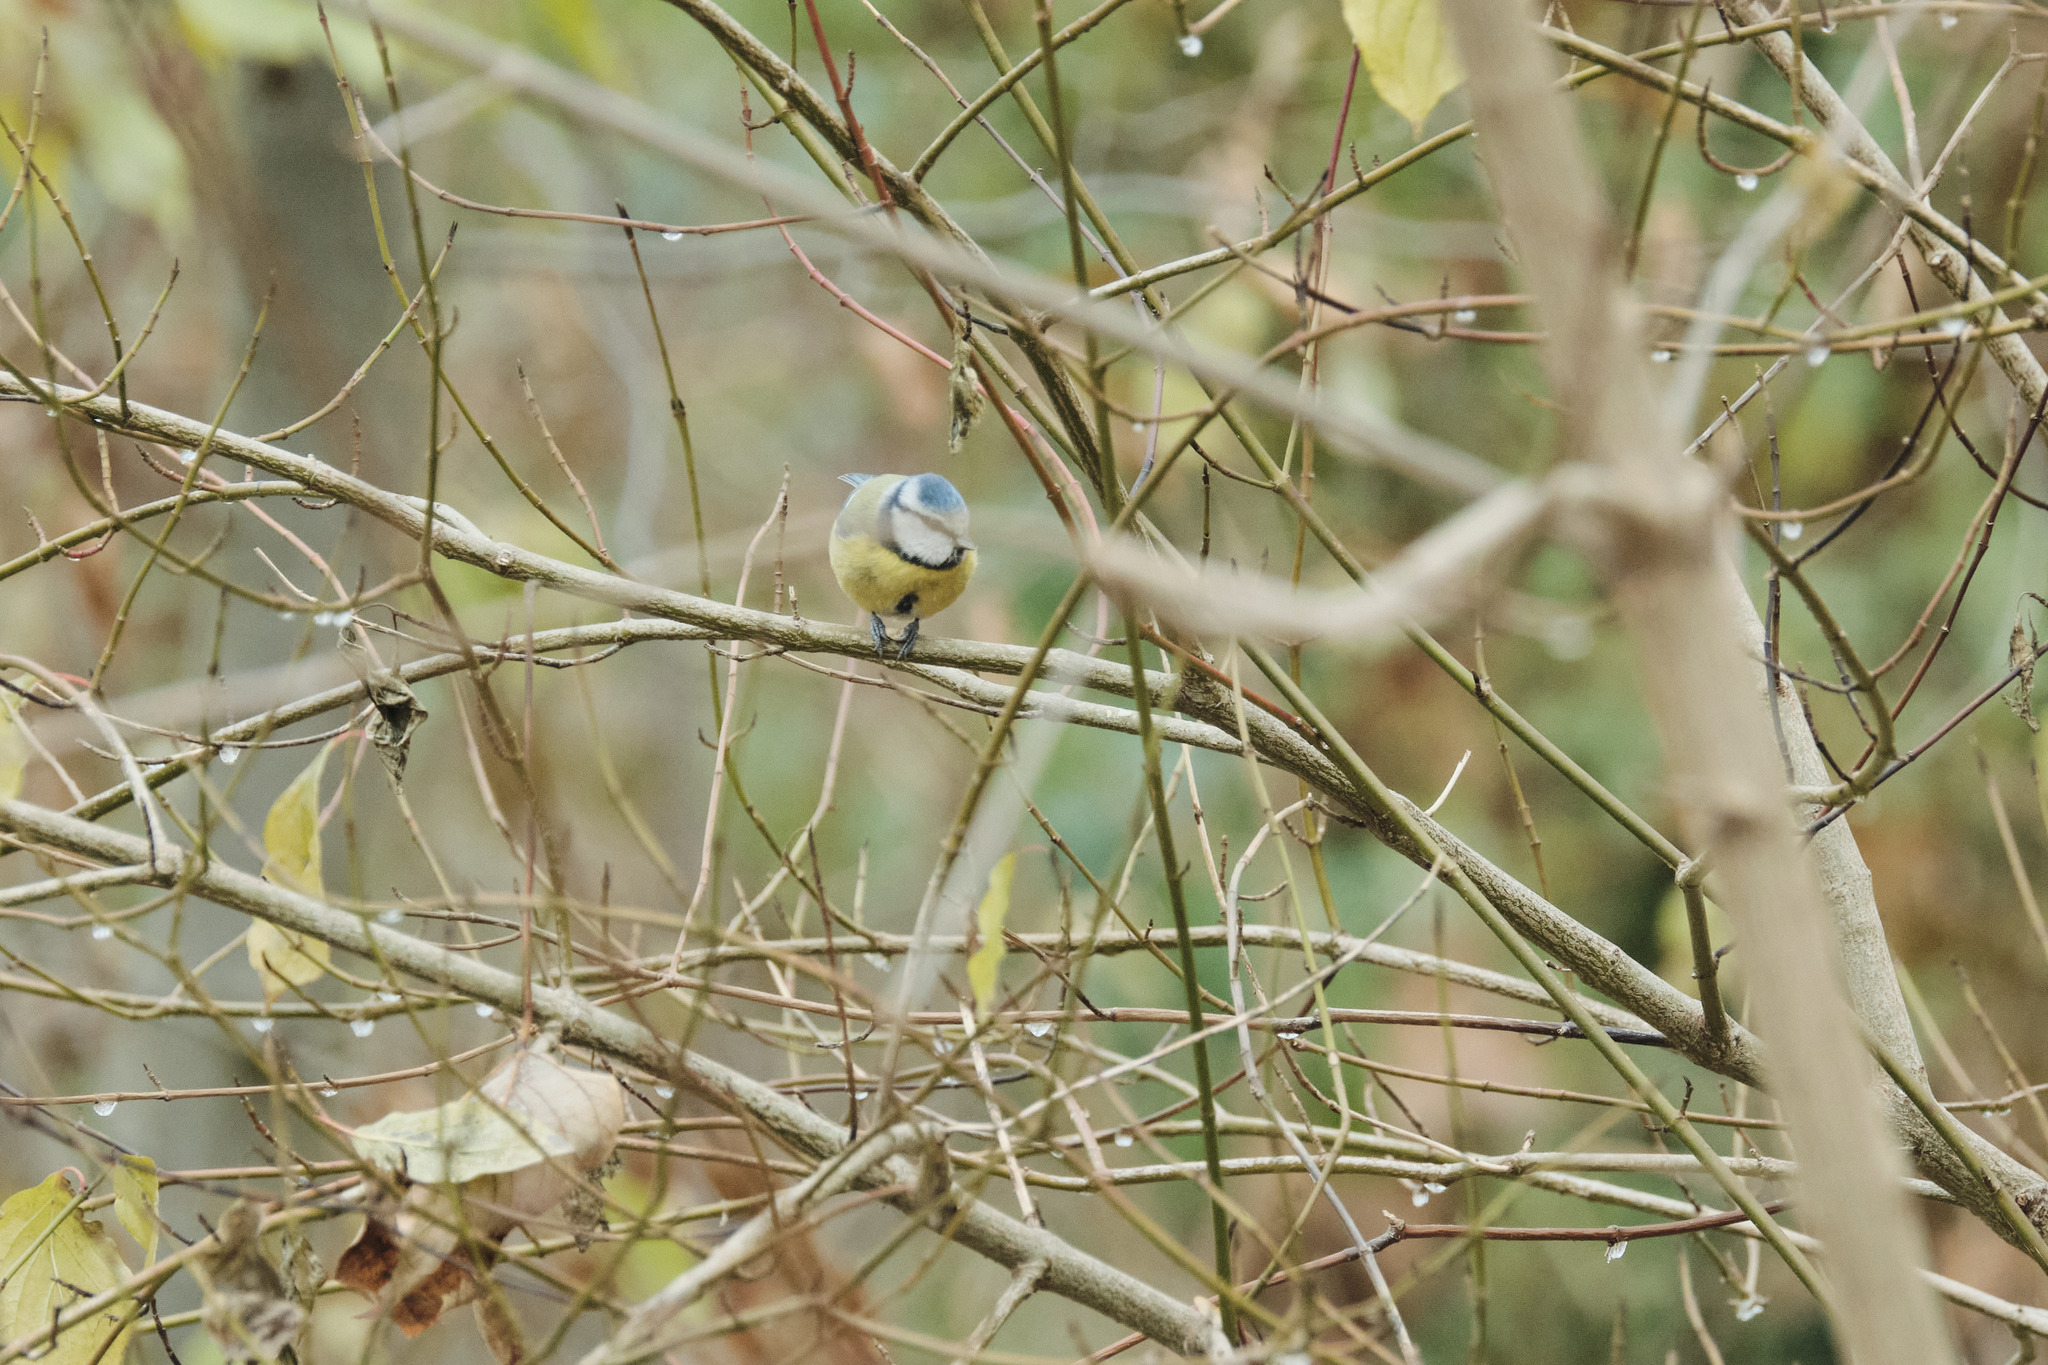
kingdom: Animalia
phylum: Chordata
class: Aves
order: Passeriformes
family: Paridae
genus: Cyanistes
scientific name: Cyanistes caeruleus
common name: Eurasian blue tit
